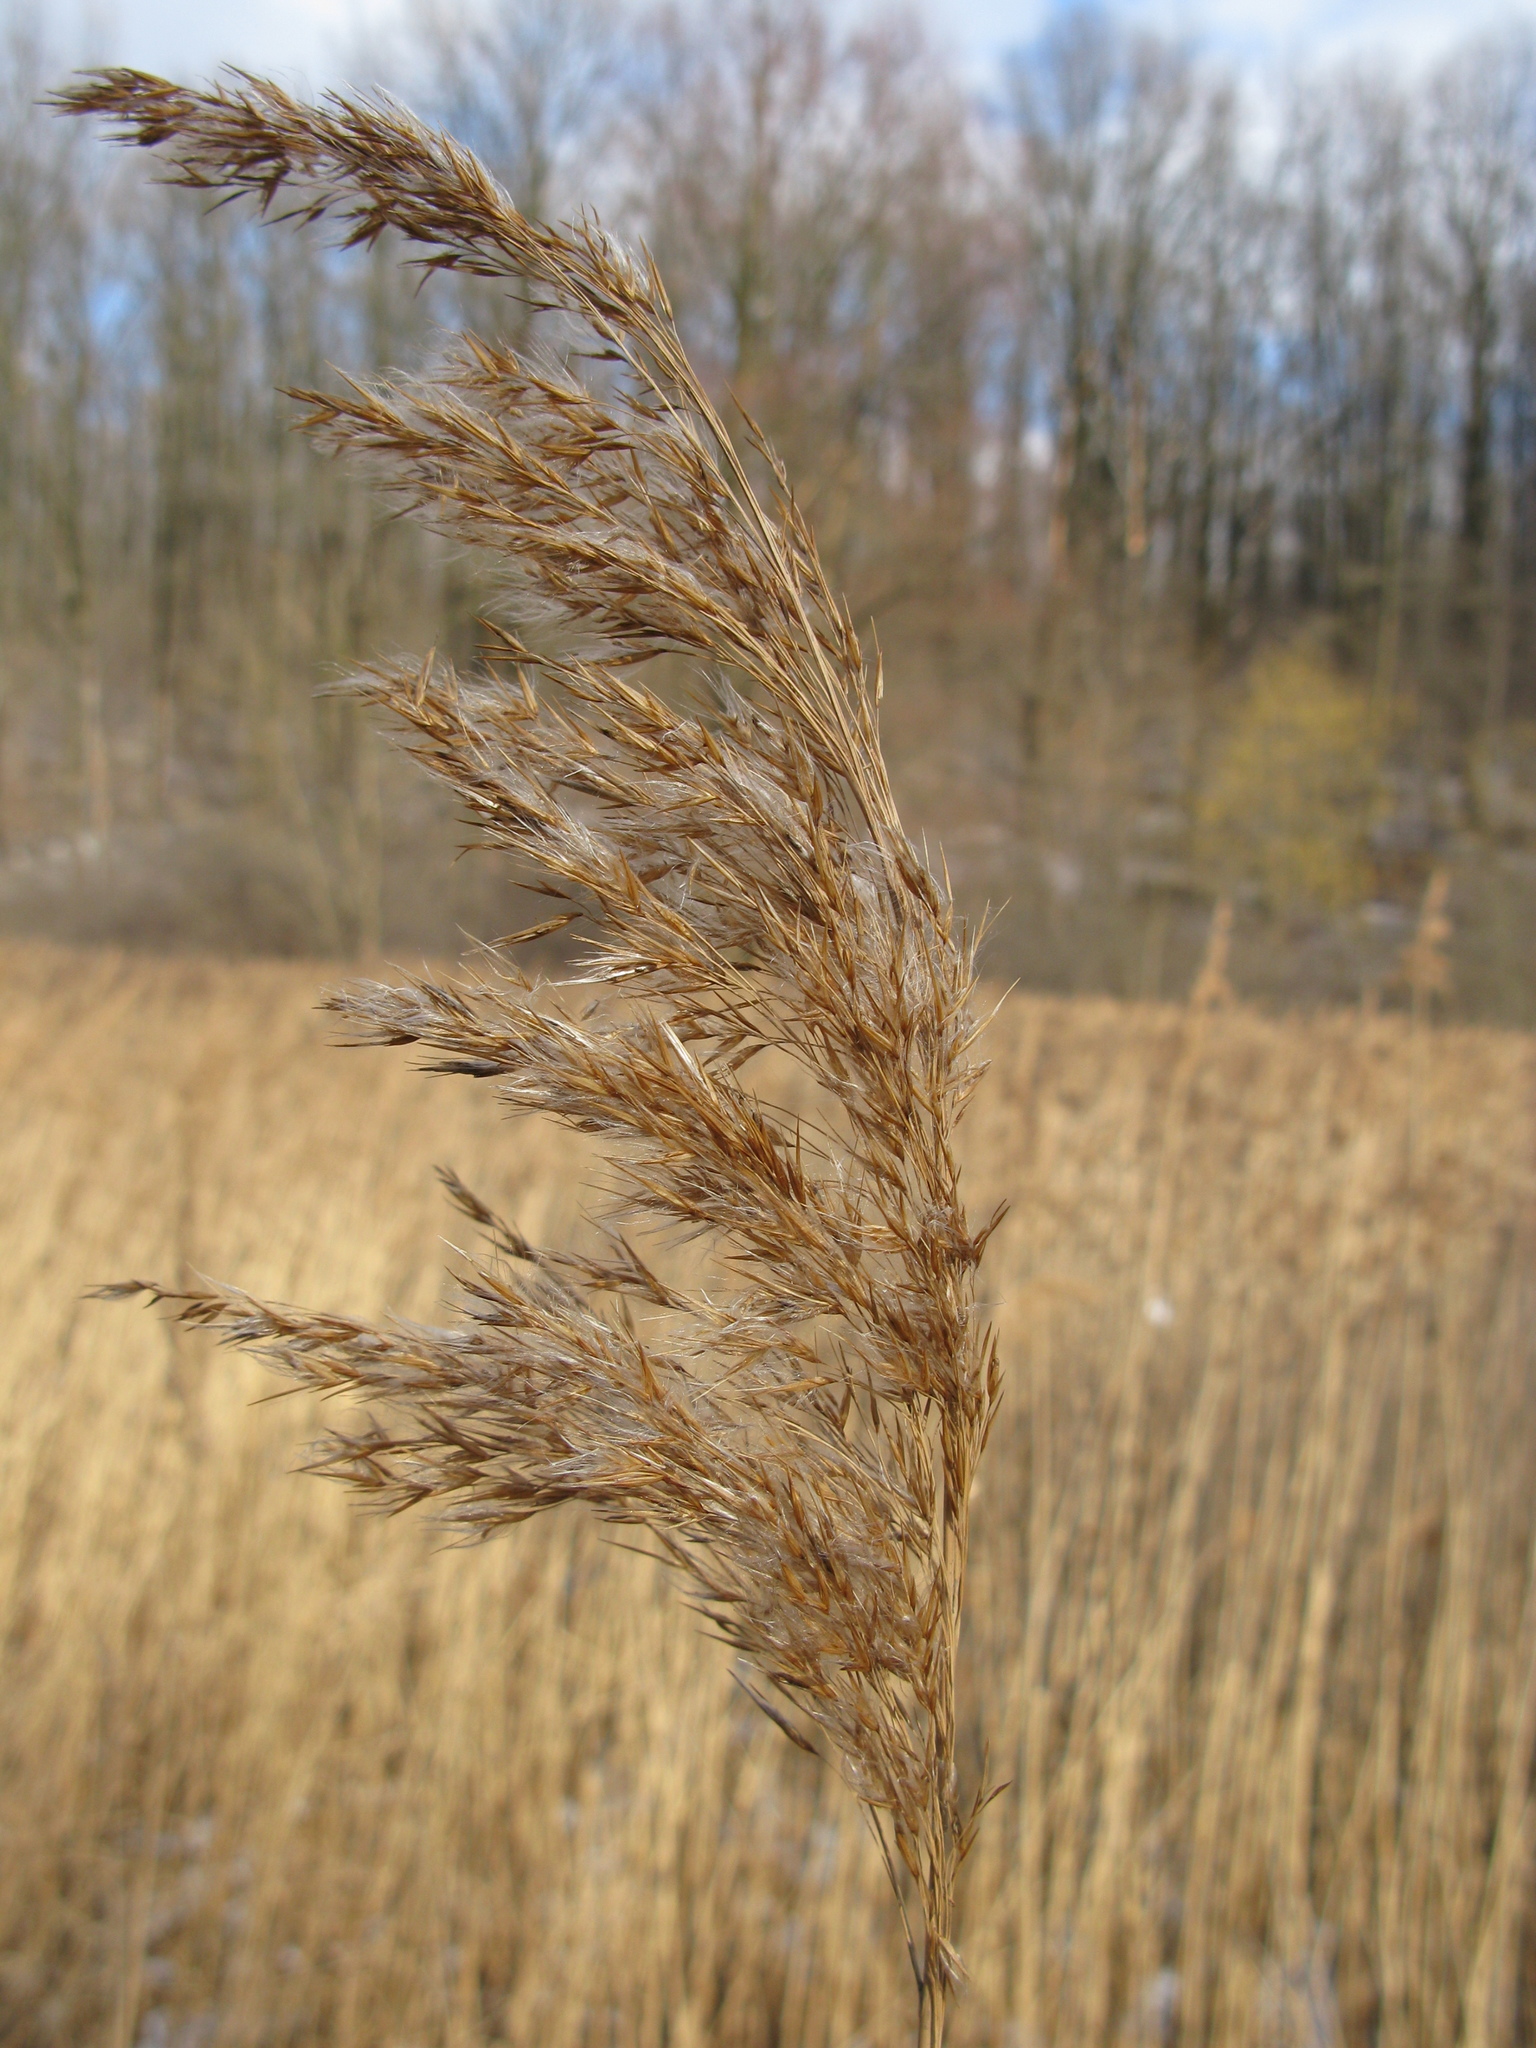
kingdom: Plantae
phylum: Tracheophyta
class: Liliopsida
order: Poales
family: Poaceae
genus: Phragmites
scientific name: Phragmites australis
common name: Common reed
